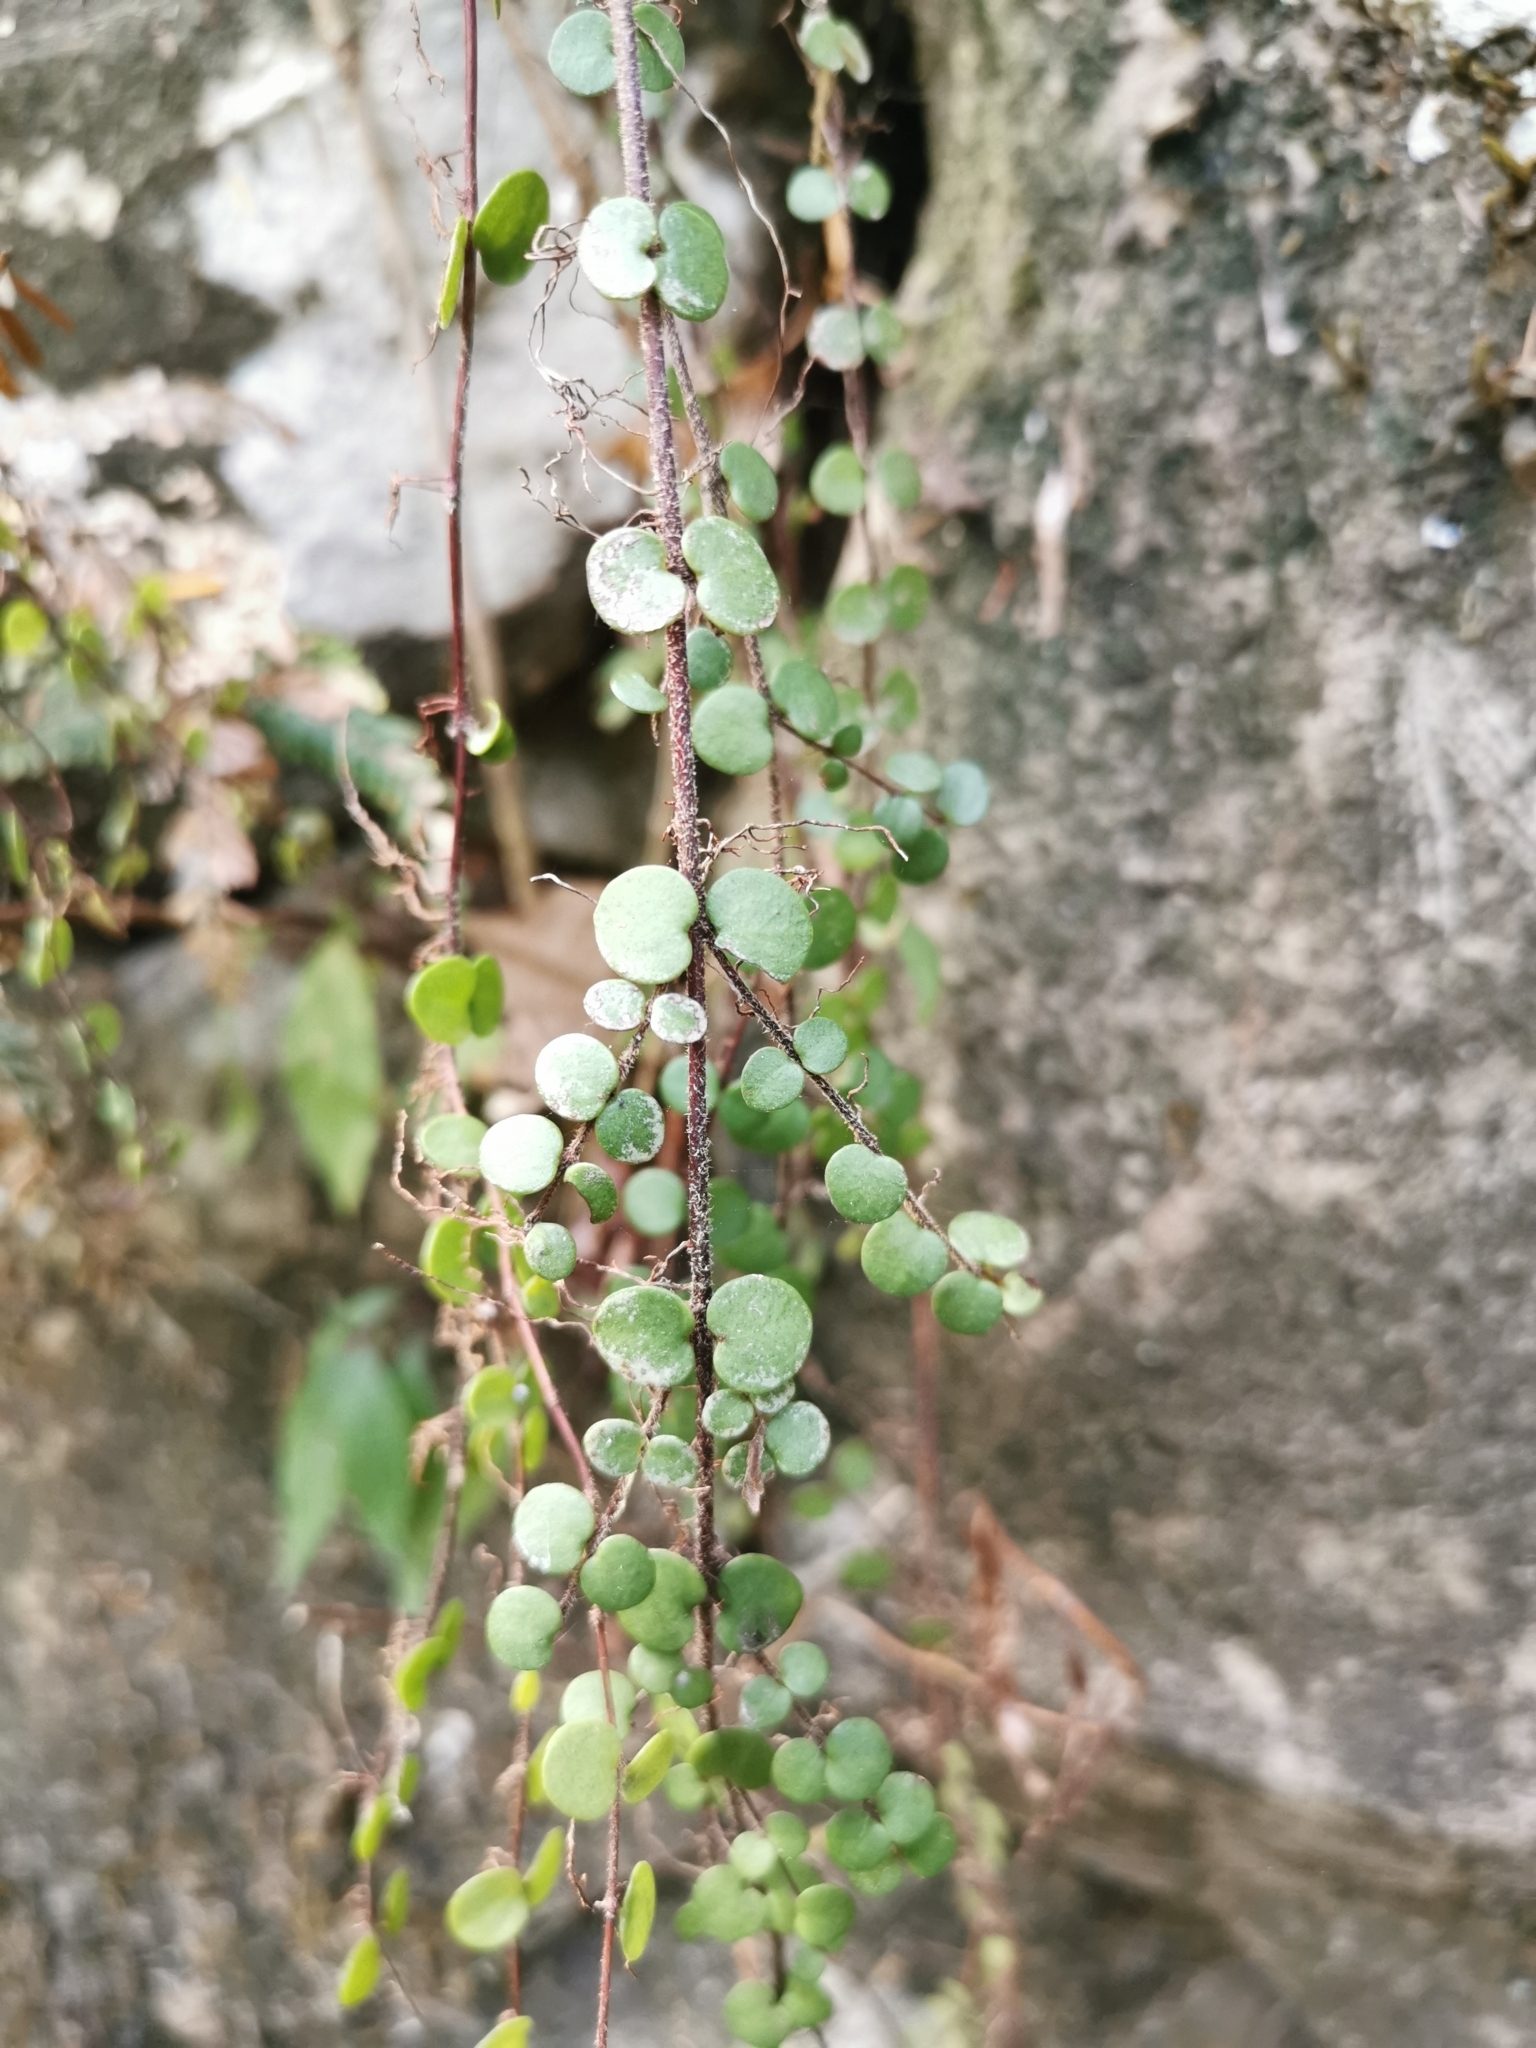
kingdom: Plantae
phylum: Tracheophyta
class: Magnoliopsida
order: Myrtales
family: Myrtaceae
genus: Metrosideros
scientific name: Metrosideros carminea
